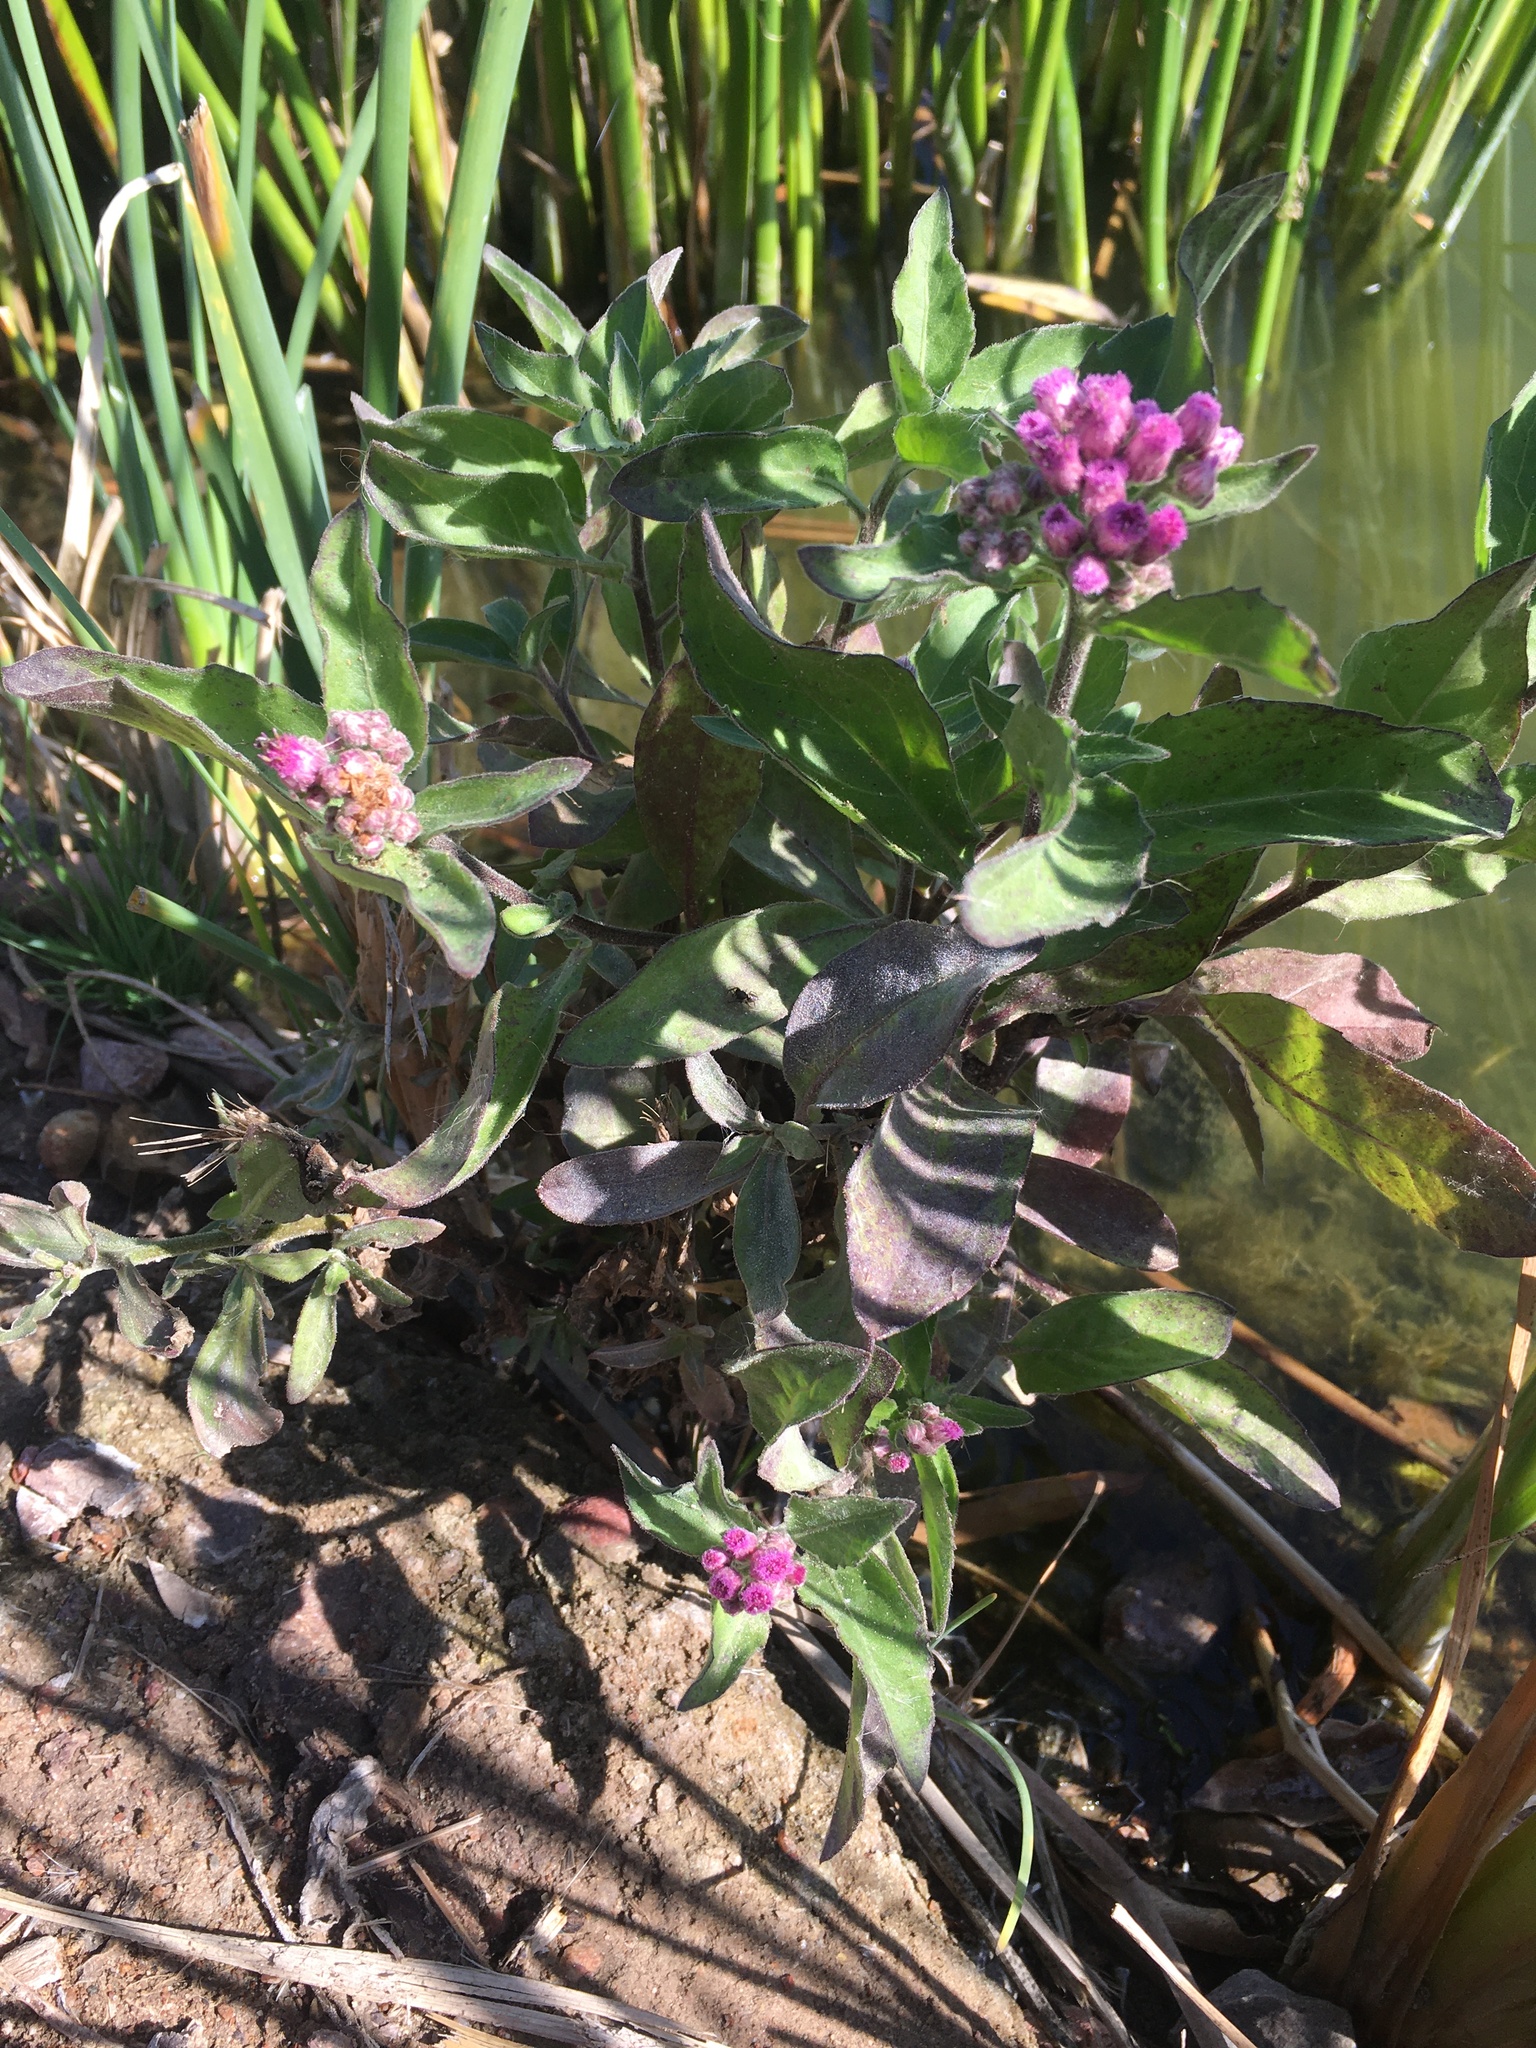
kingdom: Plantae
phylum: Tracheophyta
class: Magnoliopsida
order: Asterales
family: Asteraceae
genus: Pluchea
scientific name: Pluchea odorata
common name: Saltmarsh fleabane
